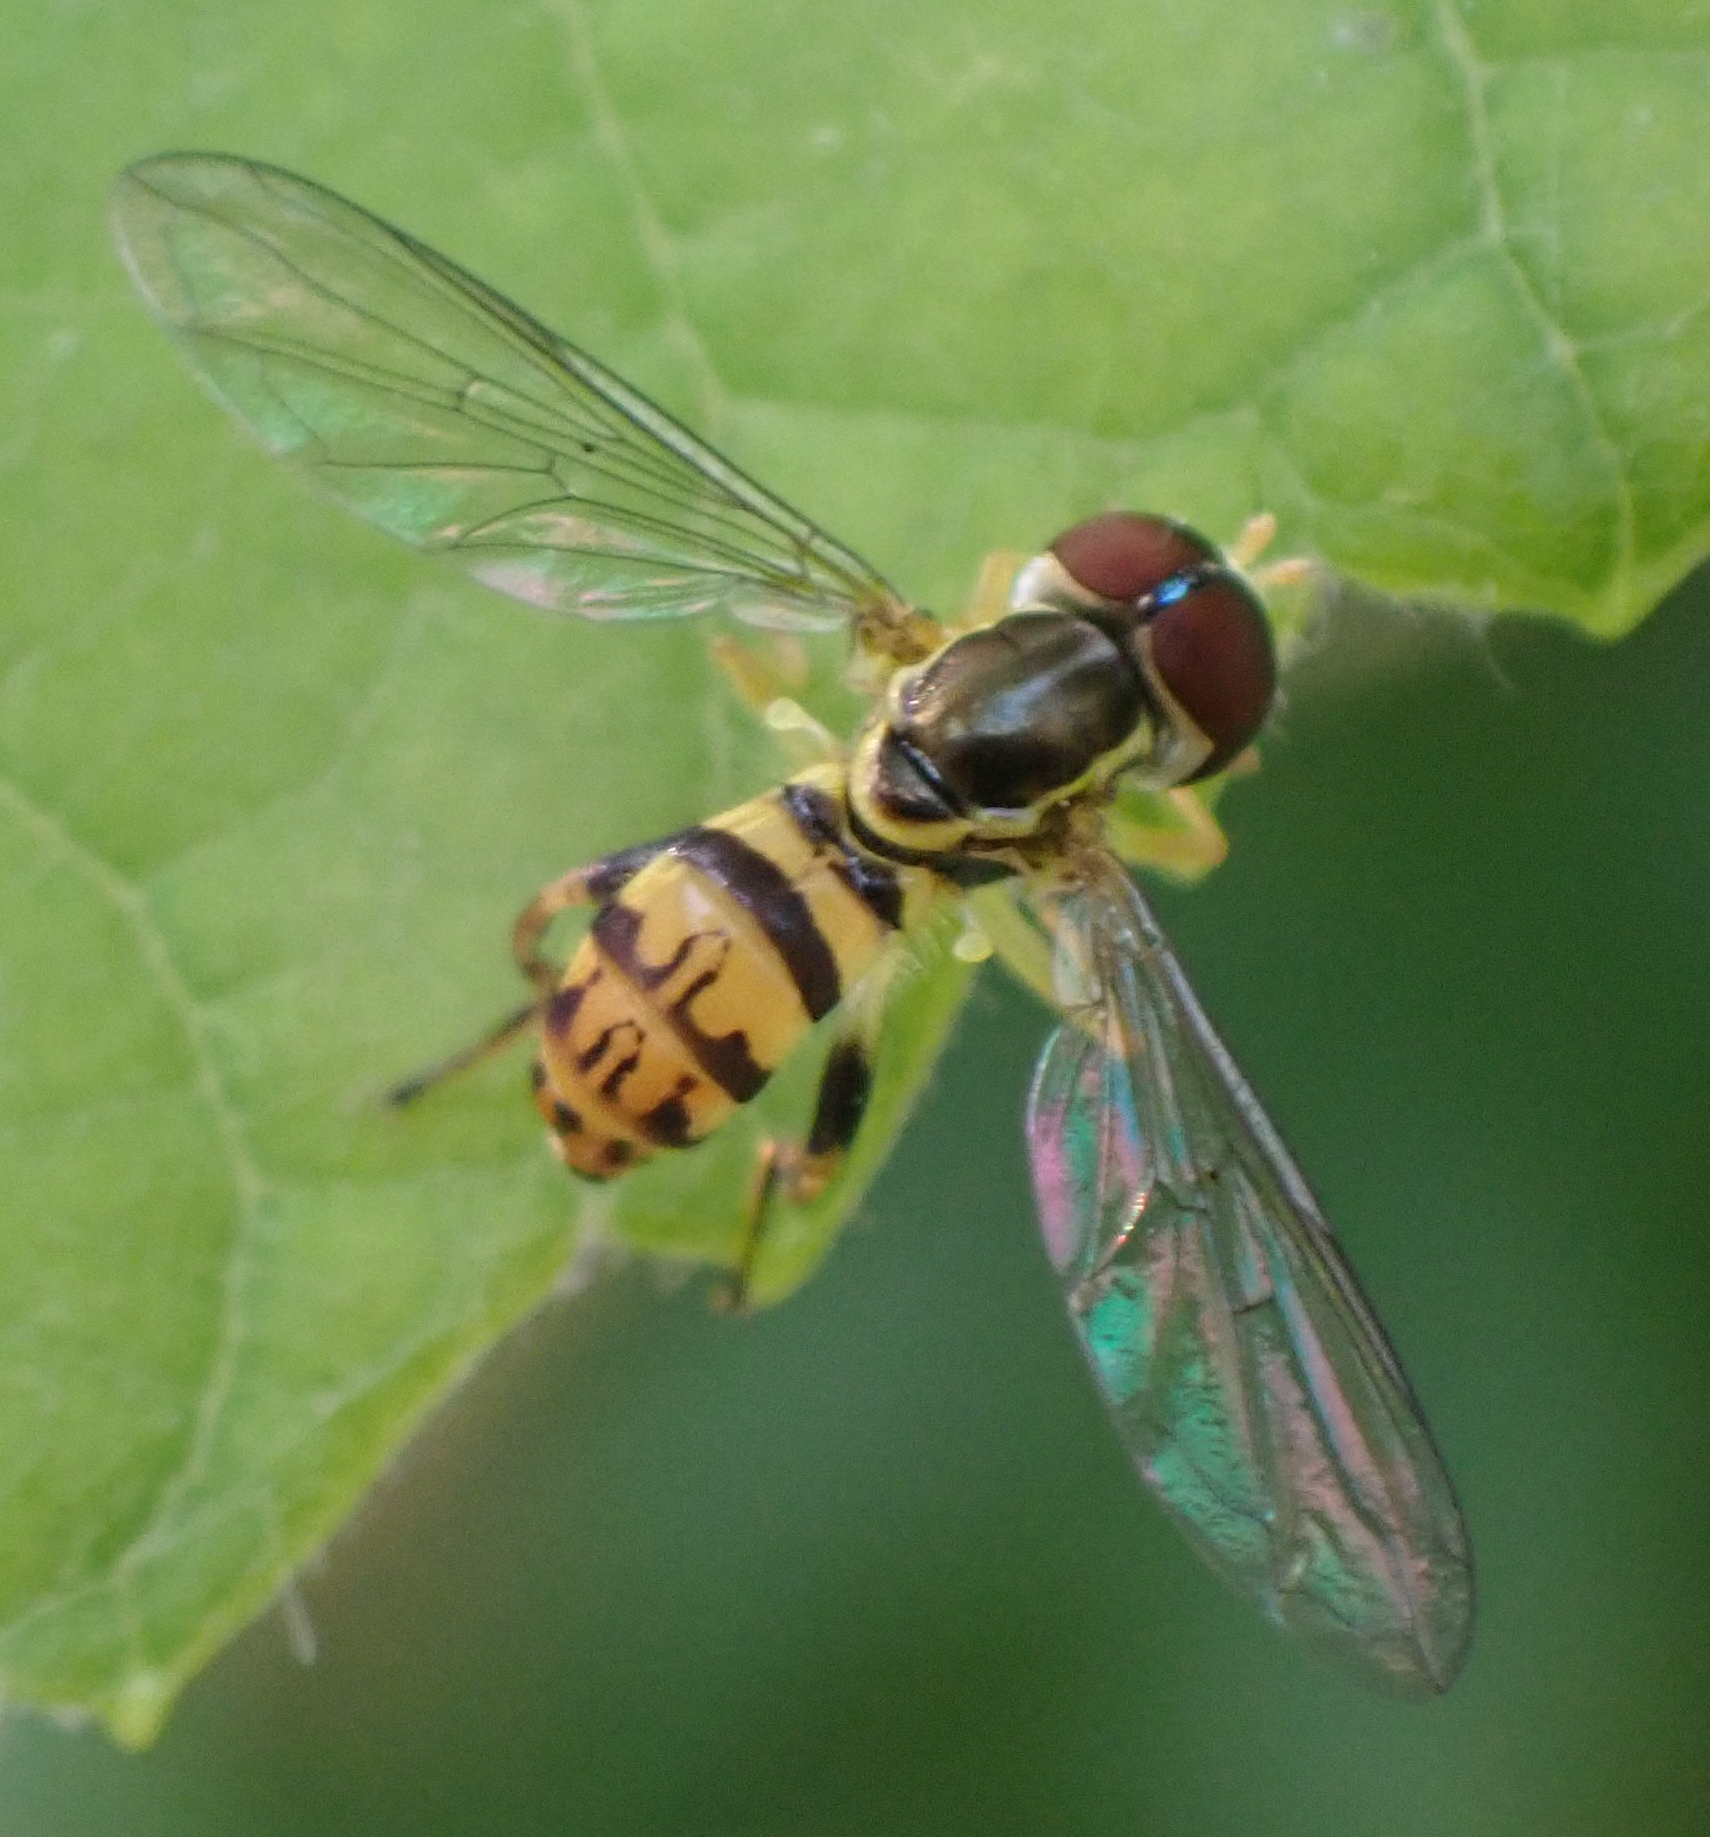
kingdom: Animalia
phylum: Arthropoda
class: Insecta
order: Diptera
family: Syrphidae
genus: Toxomerus
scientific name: Toxomerus geminatus
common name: Eastern calligrapher
